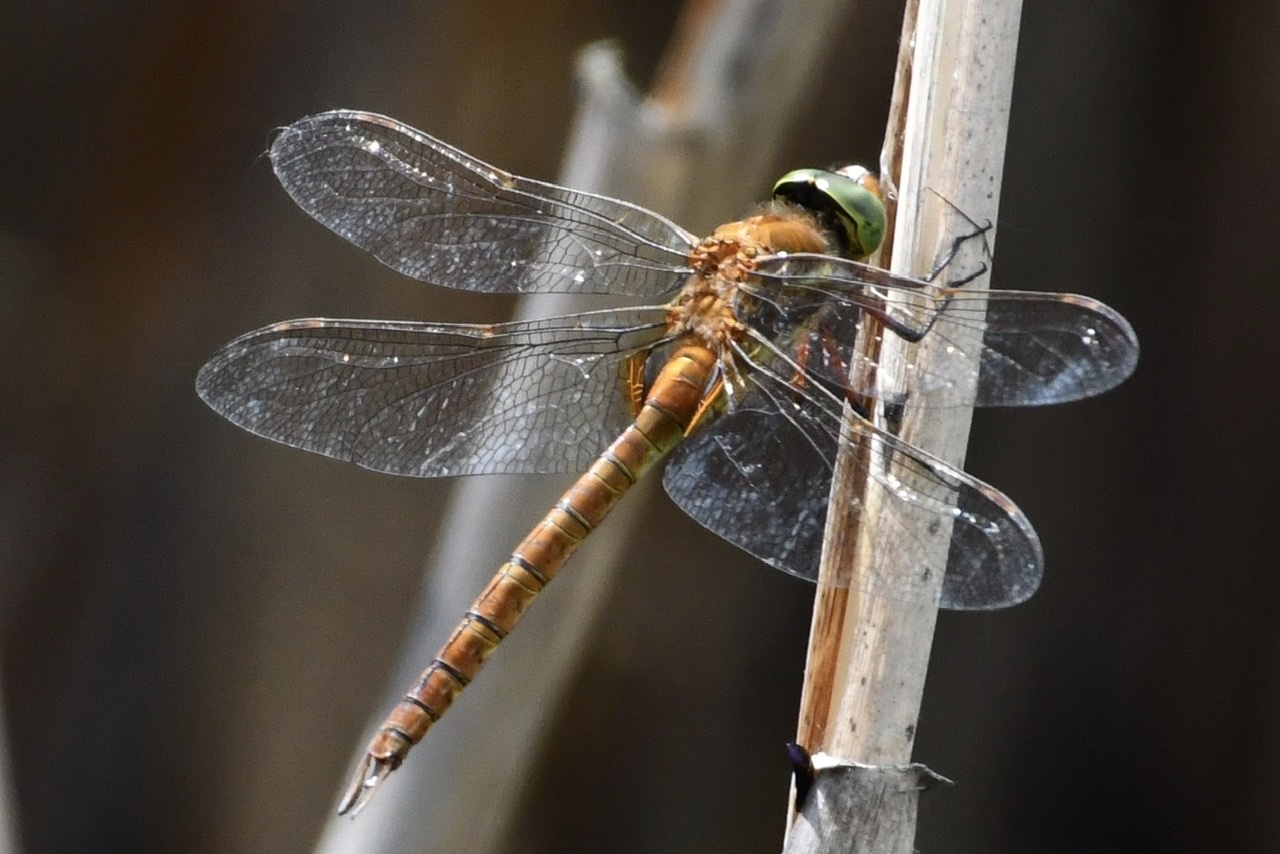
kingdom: Animalia
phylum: Arthropoda
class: Insecta
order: Odonata
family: Aeshnidae
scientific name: Aeshnidae
